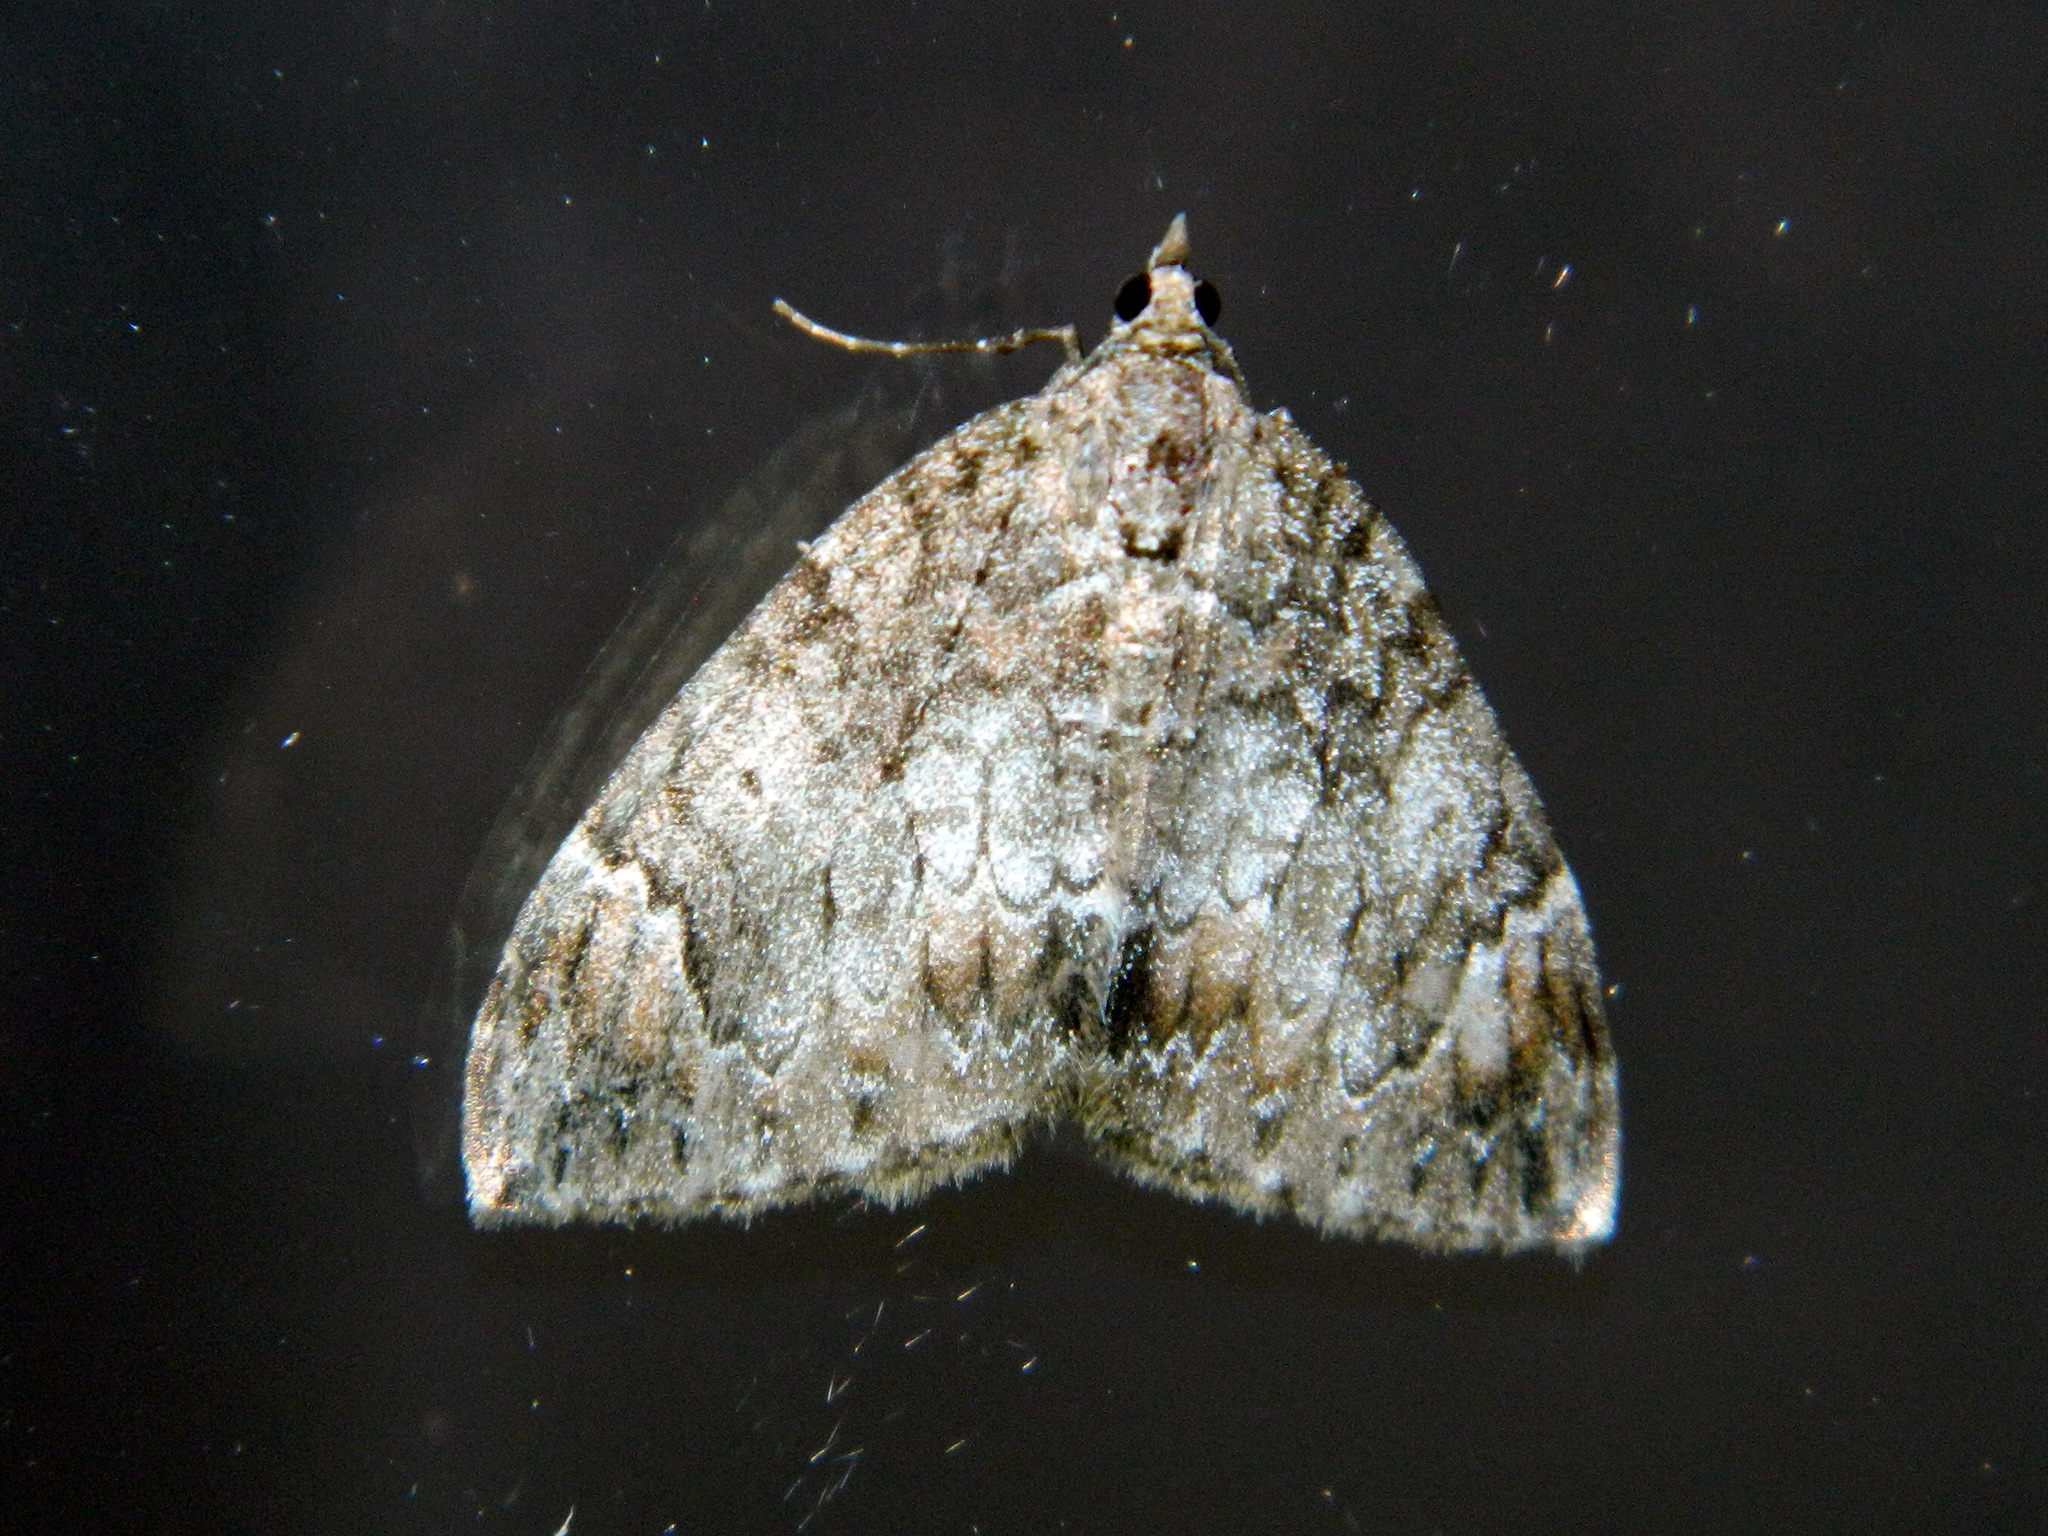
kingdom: Animalia
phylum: Arthropoda
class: Insecta
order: Lepidoptera
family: Geometridae
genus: Dysstroma
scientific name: Dysstroma citrata
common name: Dark marbled carpet
